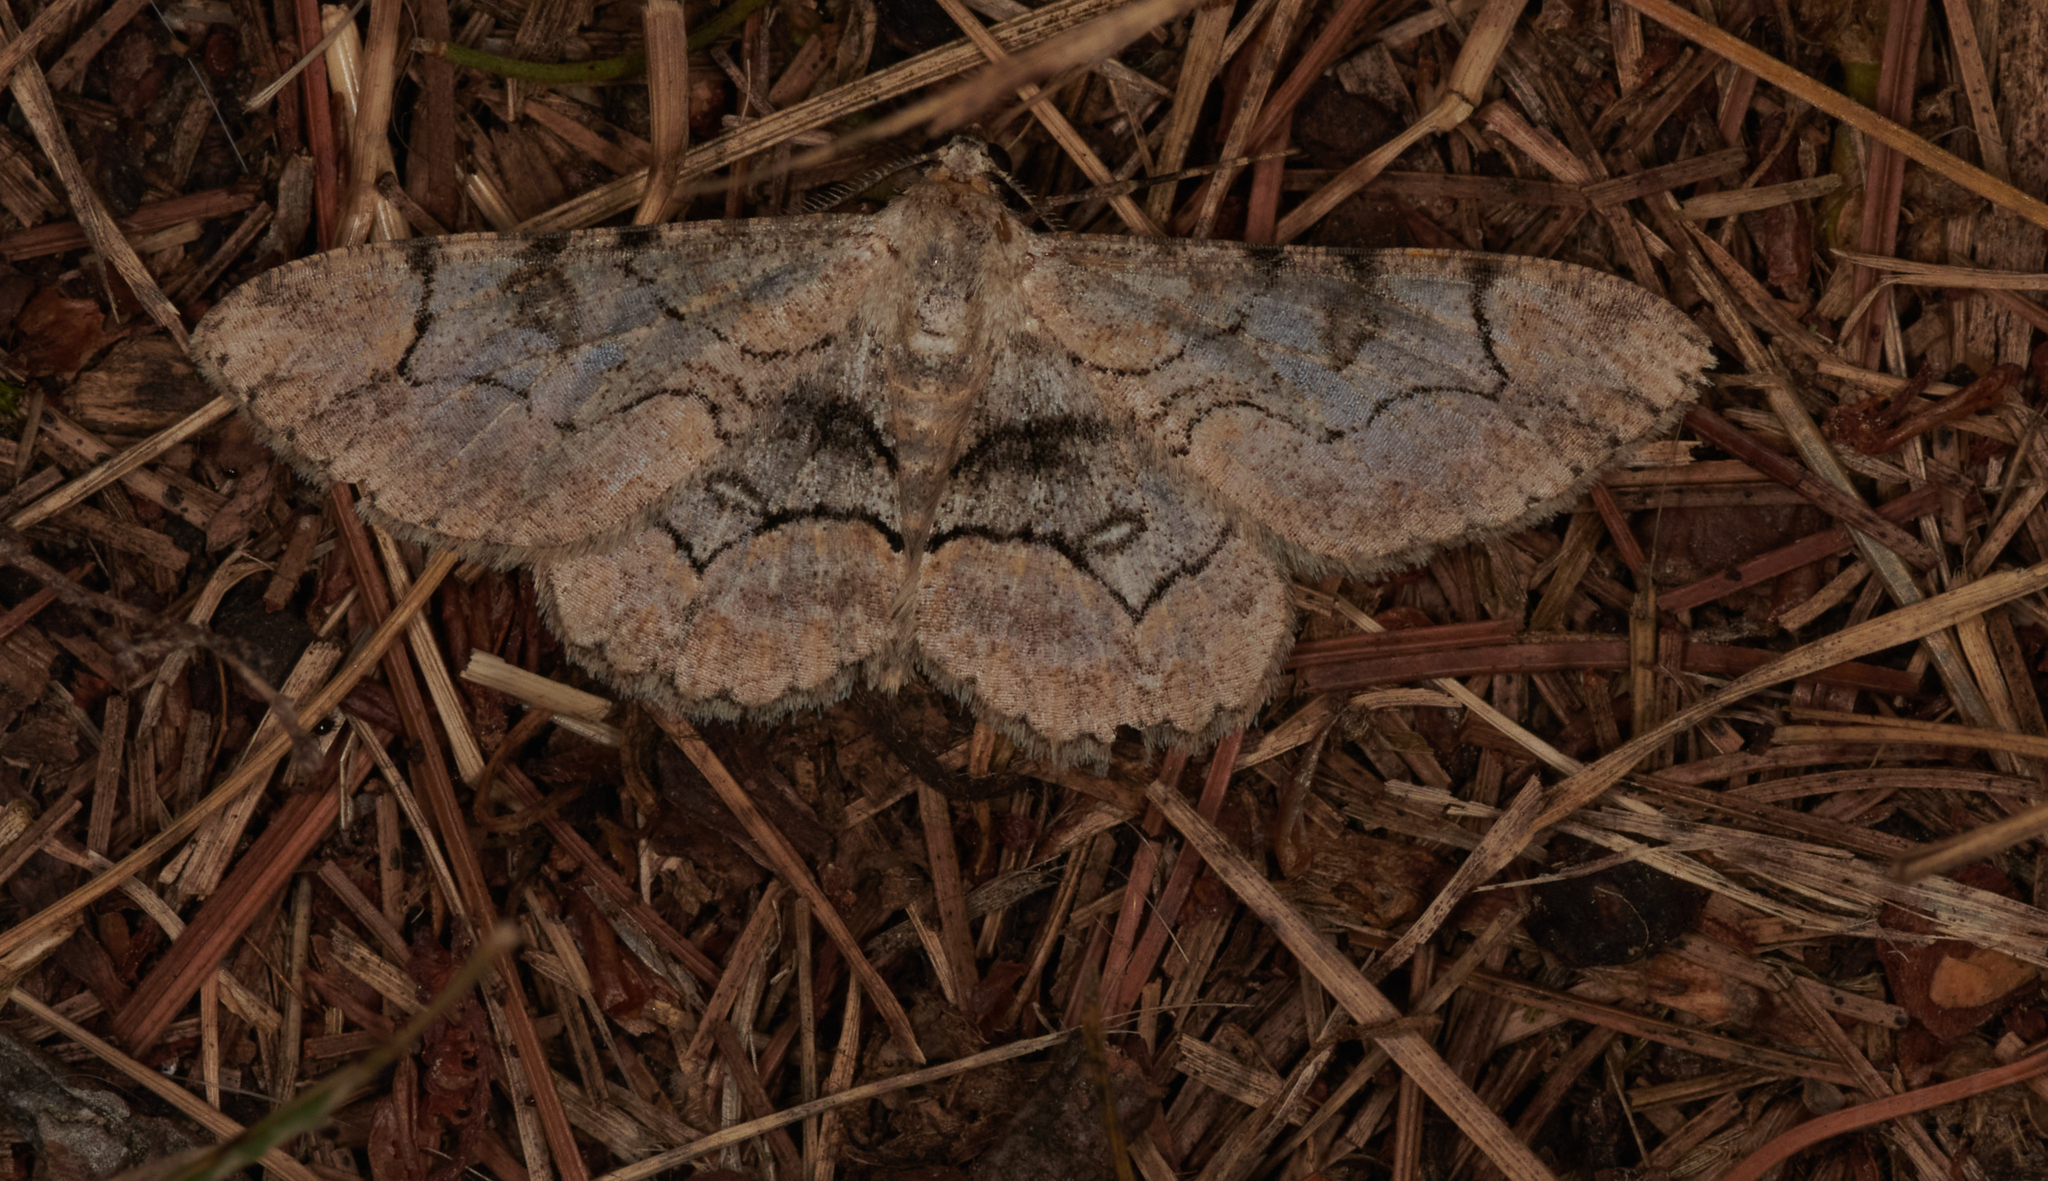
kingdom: Animalia
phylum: Arthropoda
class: Insecta
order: Lepidoptera
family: Geometridae
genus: Iridopsis
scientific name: Iridopsis larvaria
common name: Bent-line gray
